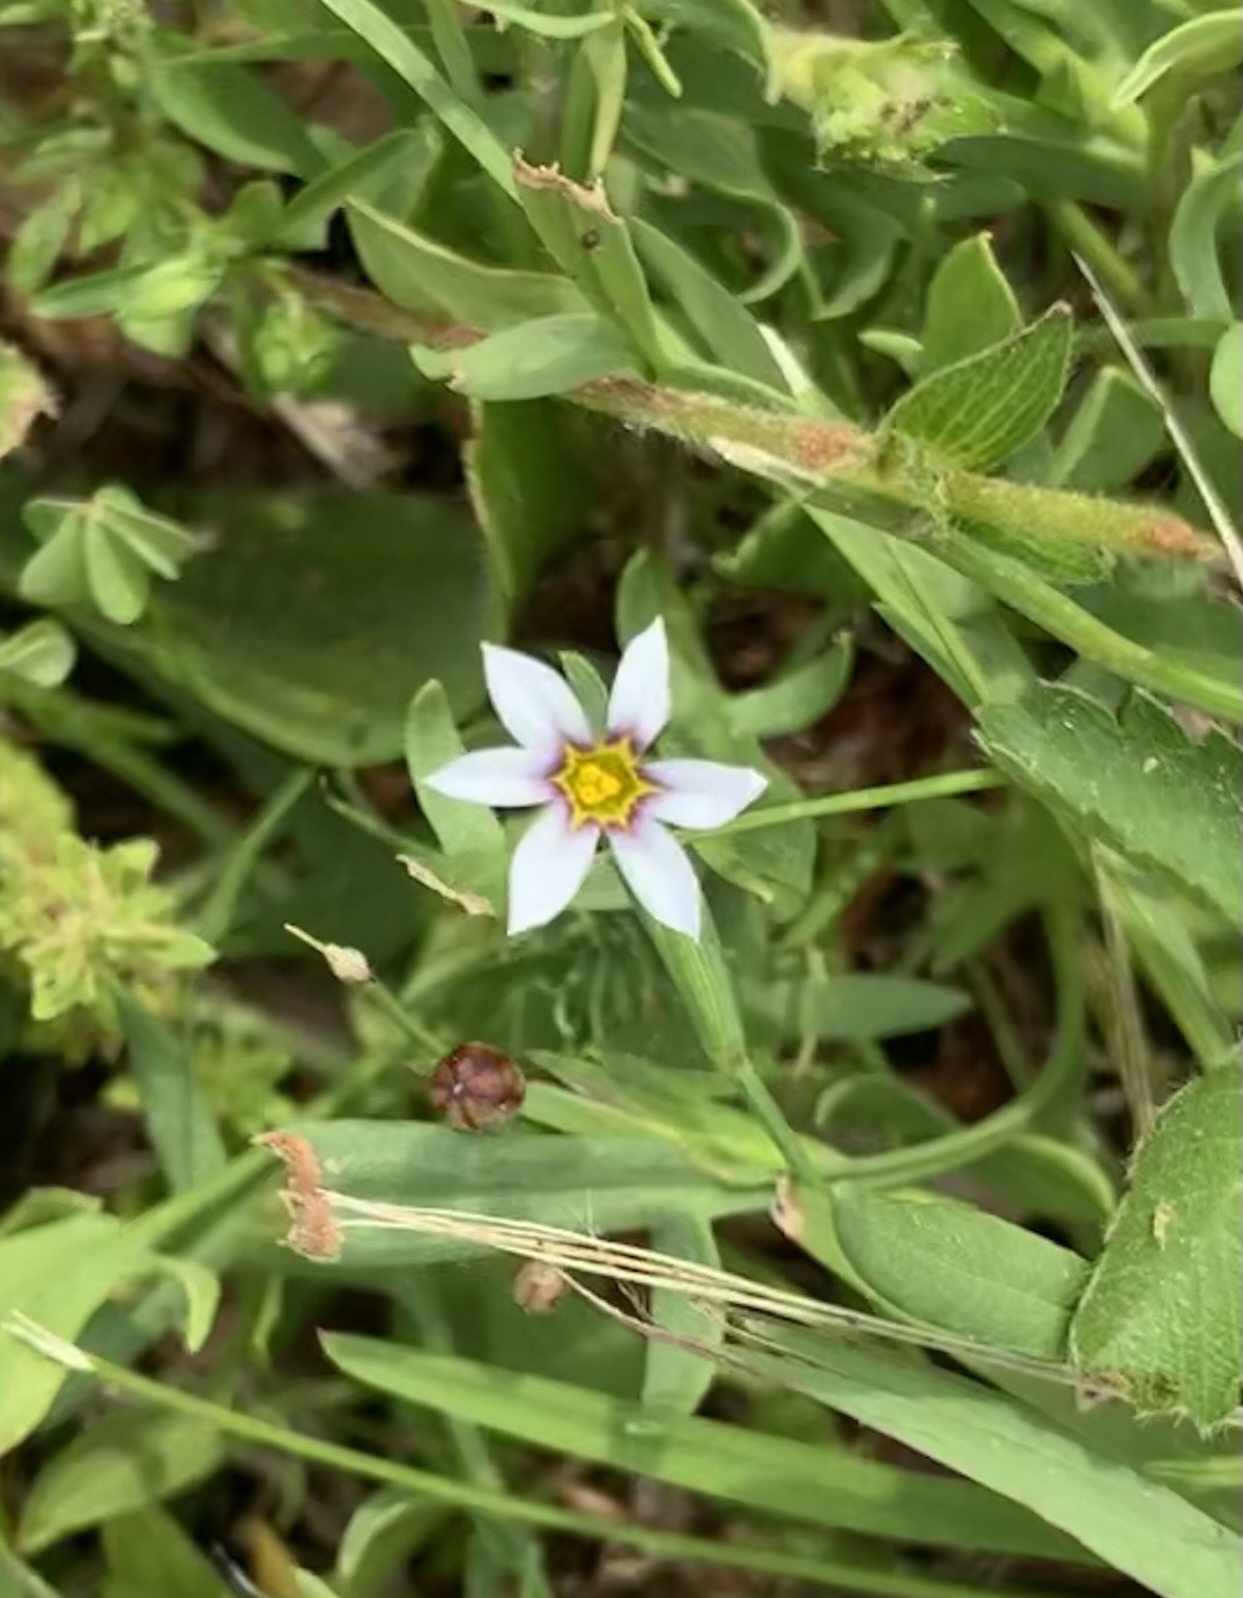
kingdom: Plantae
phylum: Tracheophyta
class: Liliopsida
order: Asparagales
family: Iridaceae
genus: Sisyrinchium
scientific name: Sisyrinchium micranthum
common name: Bermuda pigroot
